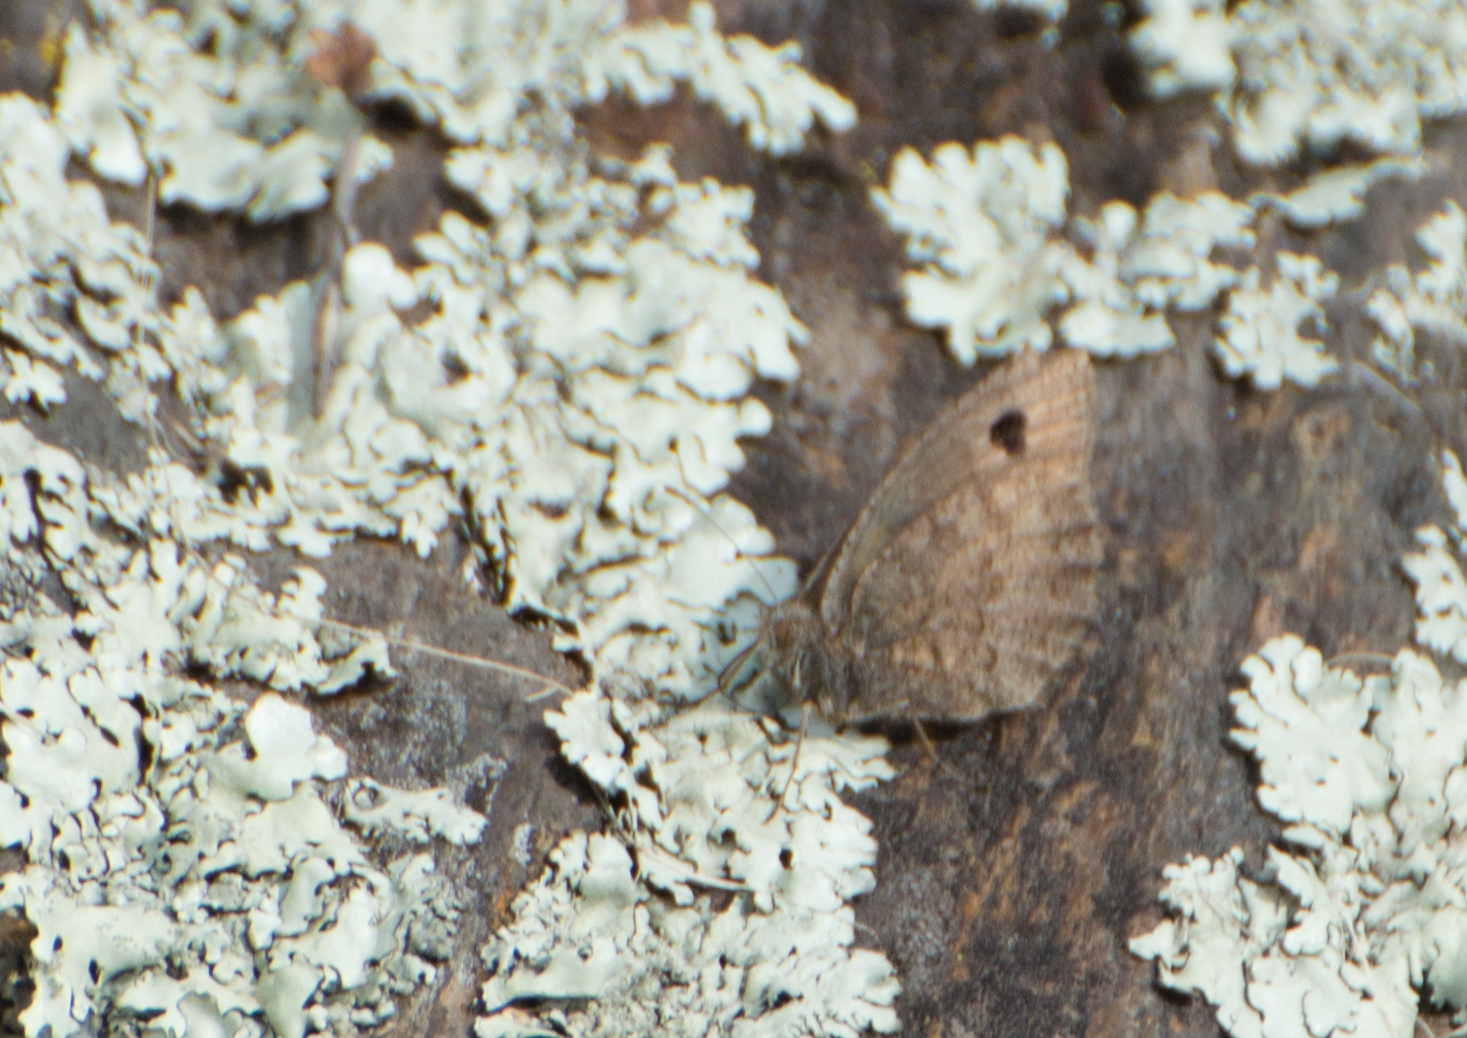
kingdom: Animalia
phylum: Arthropoda
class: Insecta
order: Lepidoptera
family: Nymphalidae
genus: Argyrophorus
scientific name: Argyrophorus
